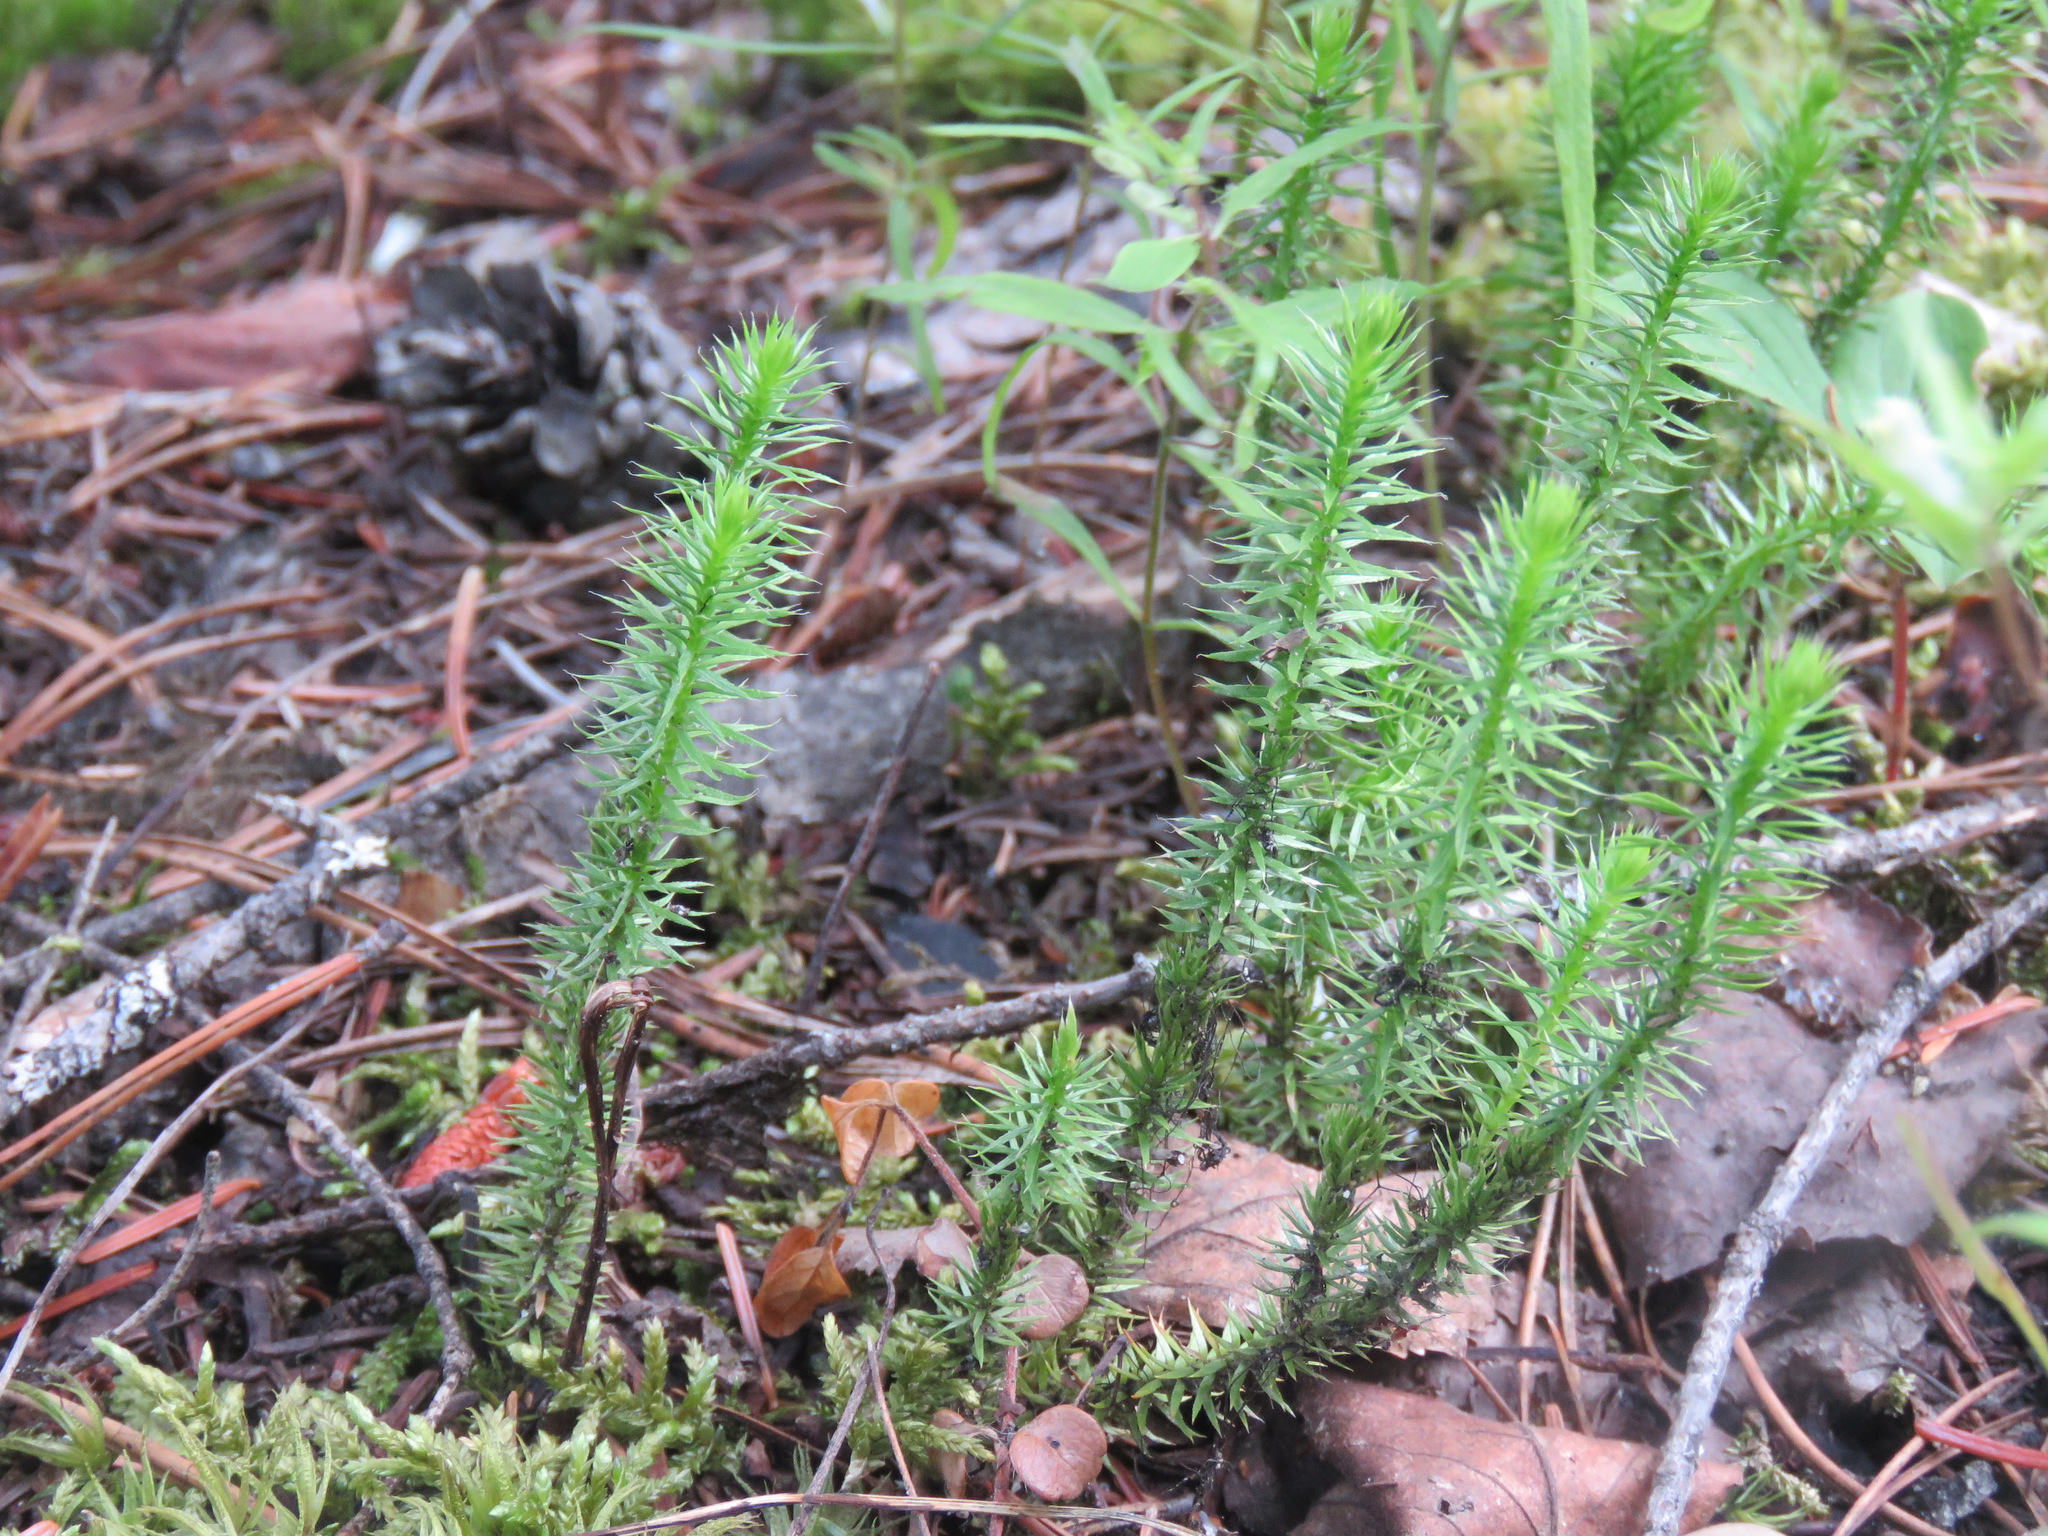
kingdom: Plantae
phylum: Tracheophyta
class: Lycopodiopsida
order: Lycopodiales
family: Lycopodiaceae
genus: Spinulum
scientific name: Spinulum annotinum
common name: Interrupted club-moss
